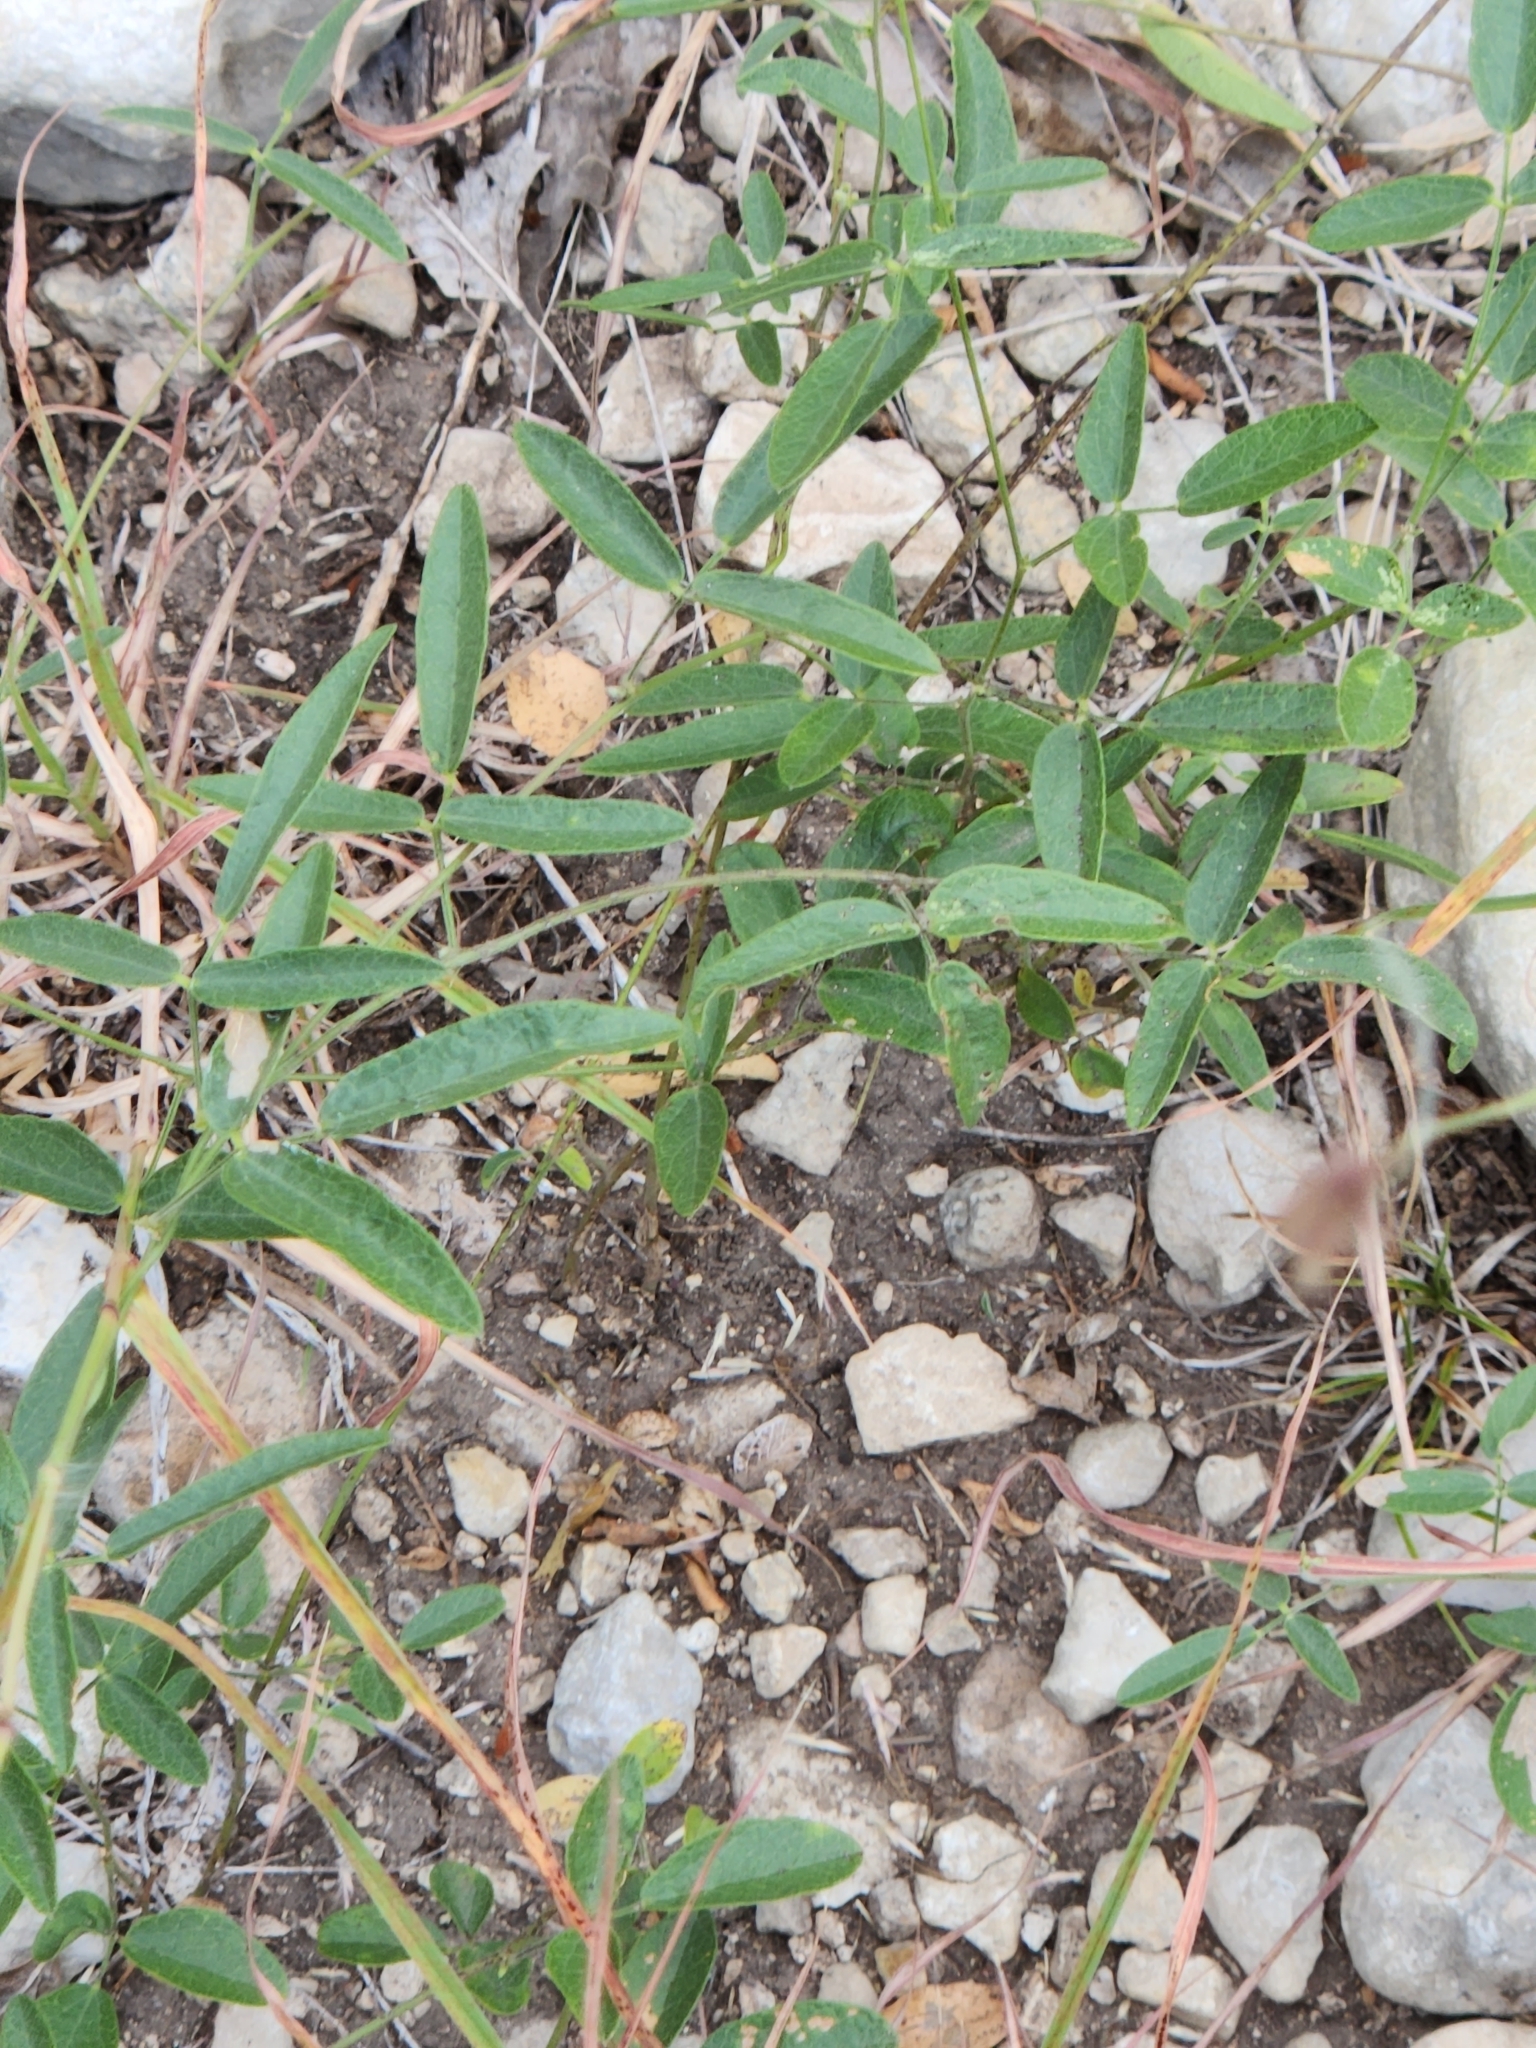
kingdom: Plantae
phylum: Tracheophyta
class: Magnoliopsida
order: Fabales
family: Fabaceae
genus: Rhynchosia
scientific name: Rhynchosia senna
